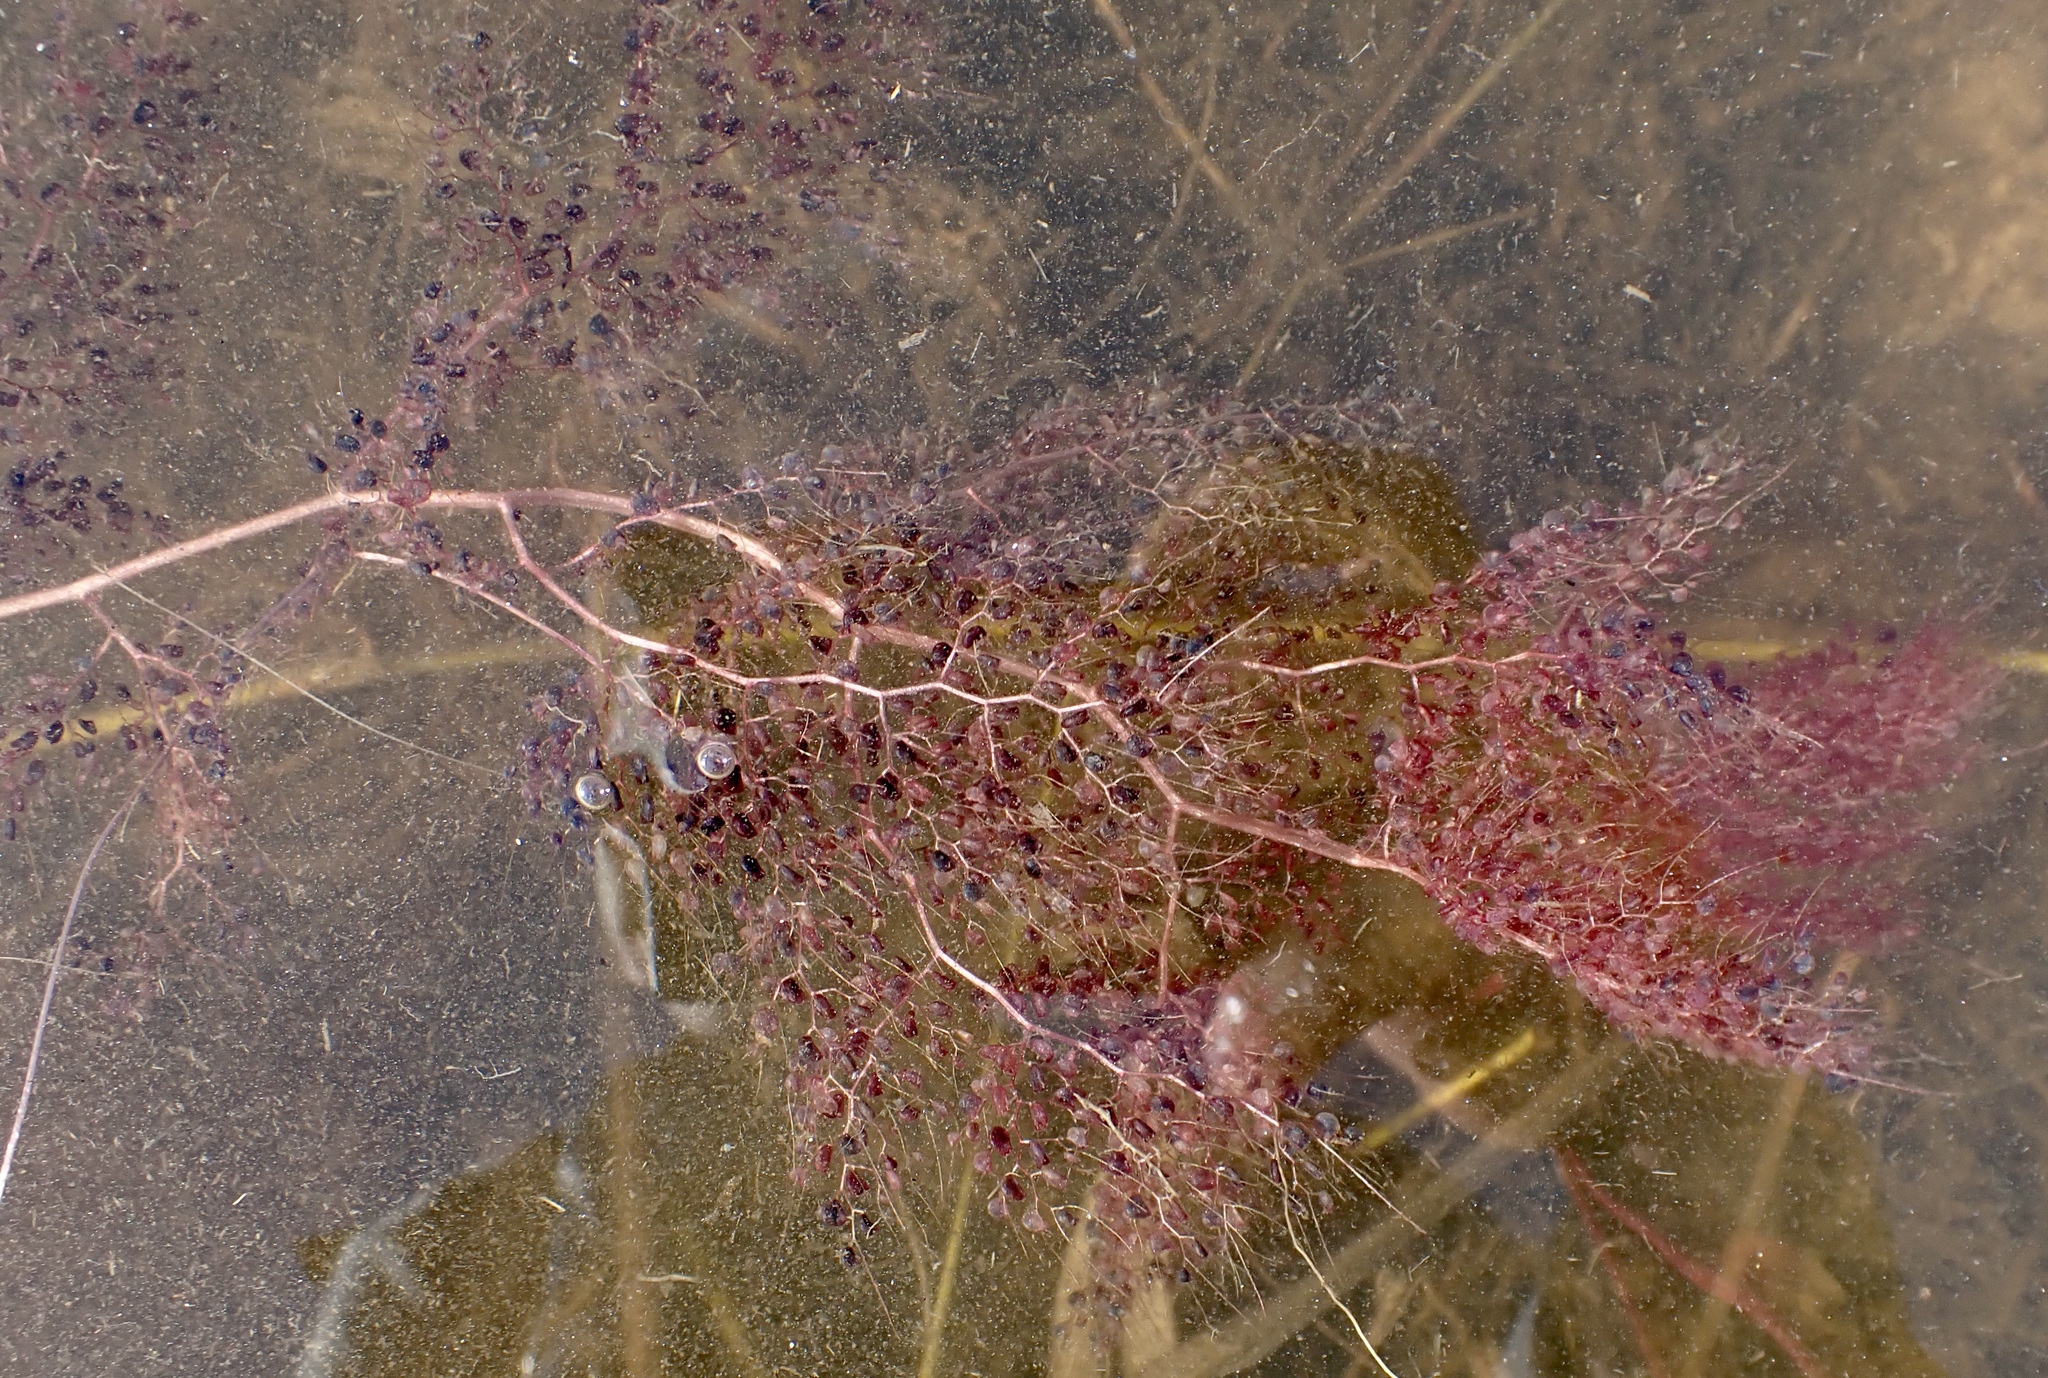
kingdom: Plantae
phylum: Tracheophyta
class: Magnoliopsida
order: Lamiales
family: Lentibulariaceae
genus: Utricularia
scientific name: Utricularia foliosa
